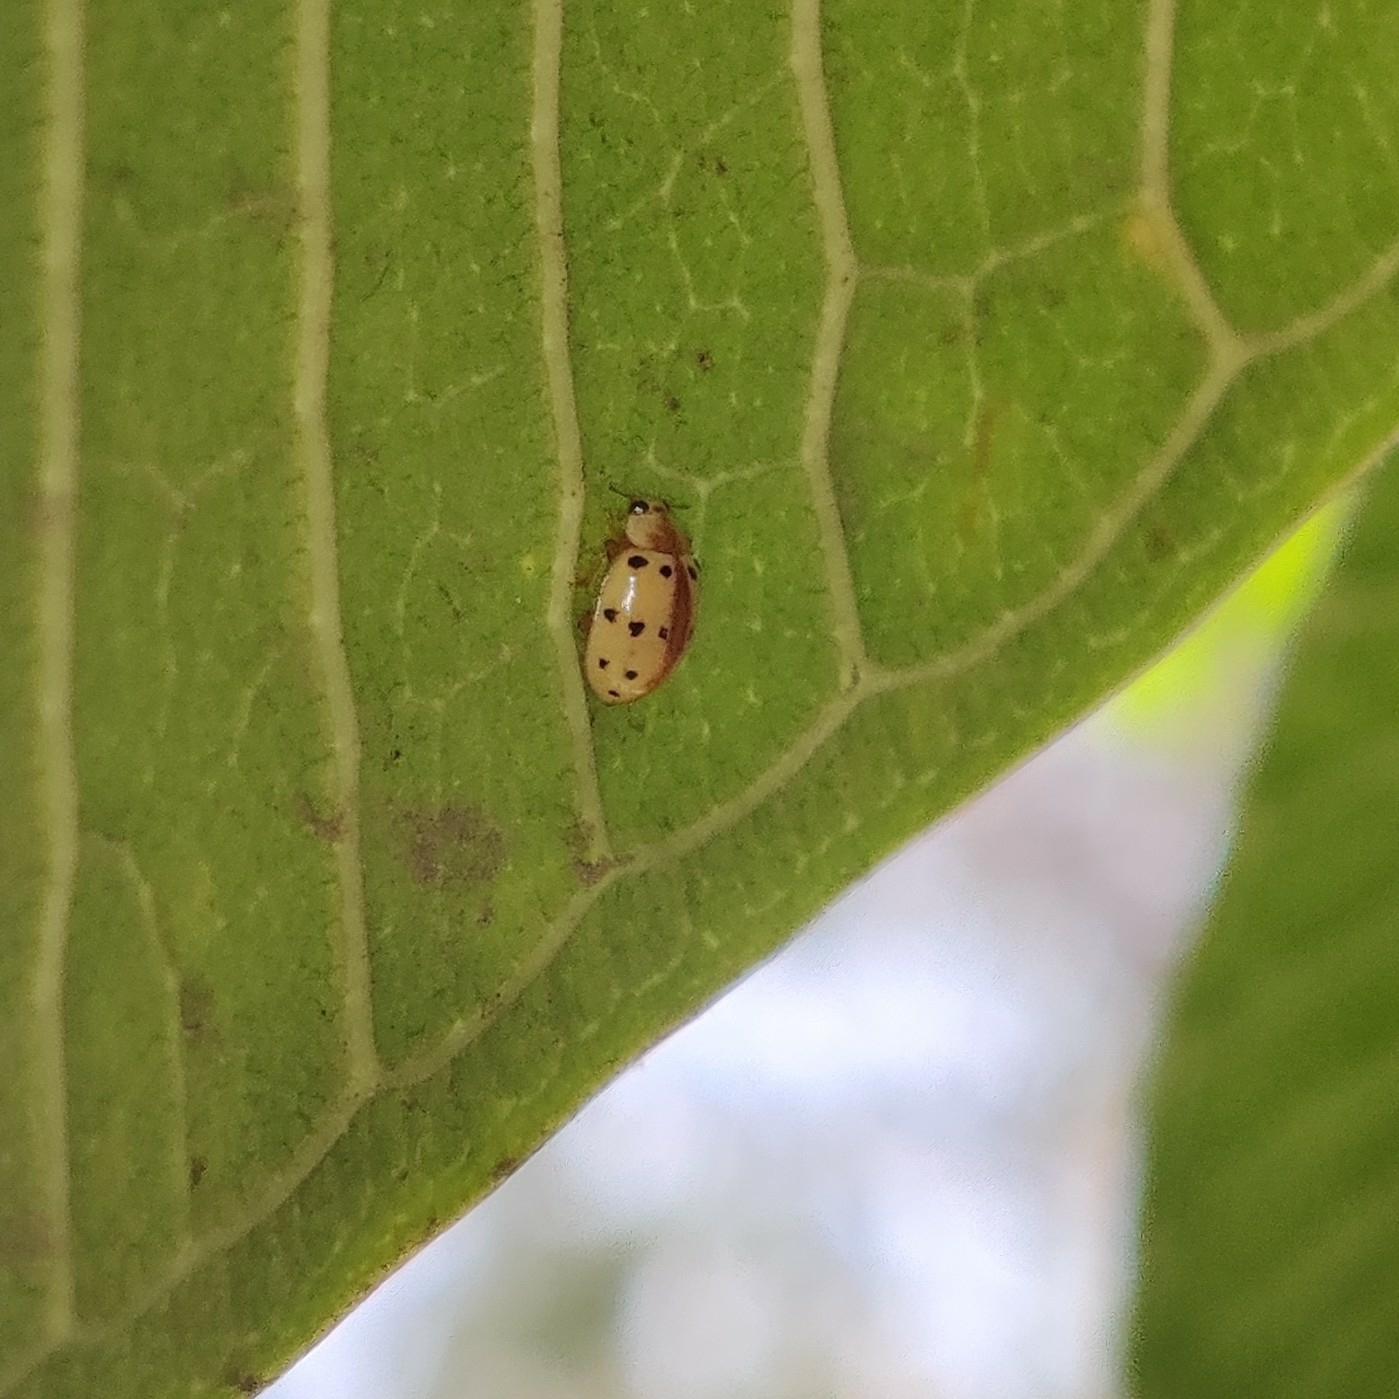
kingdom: Animalia
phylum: Arthropoda
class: Insecta
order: Coleoptera
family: Coccinellidae
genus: Psyllobora
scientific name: Psyllobora bisoctonotata
